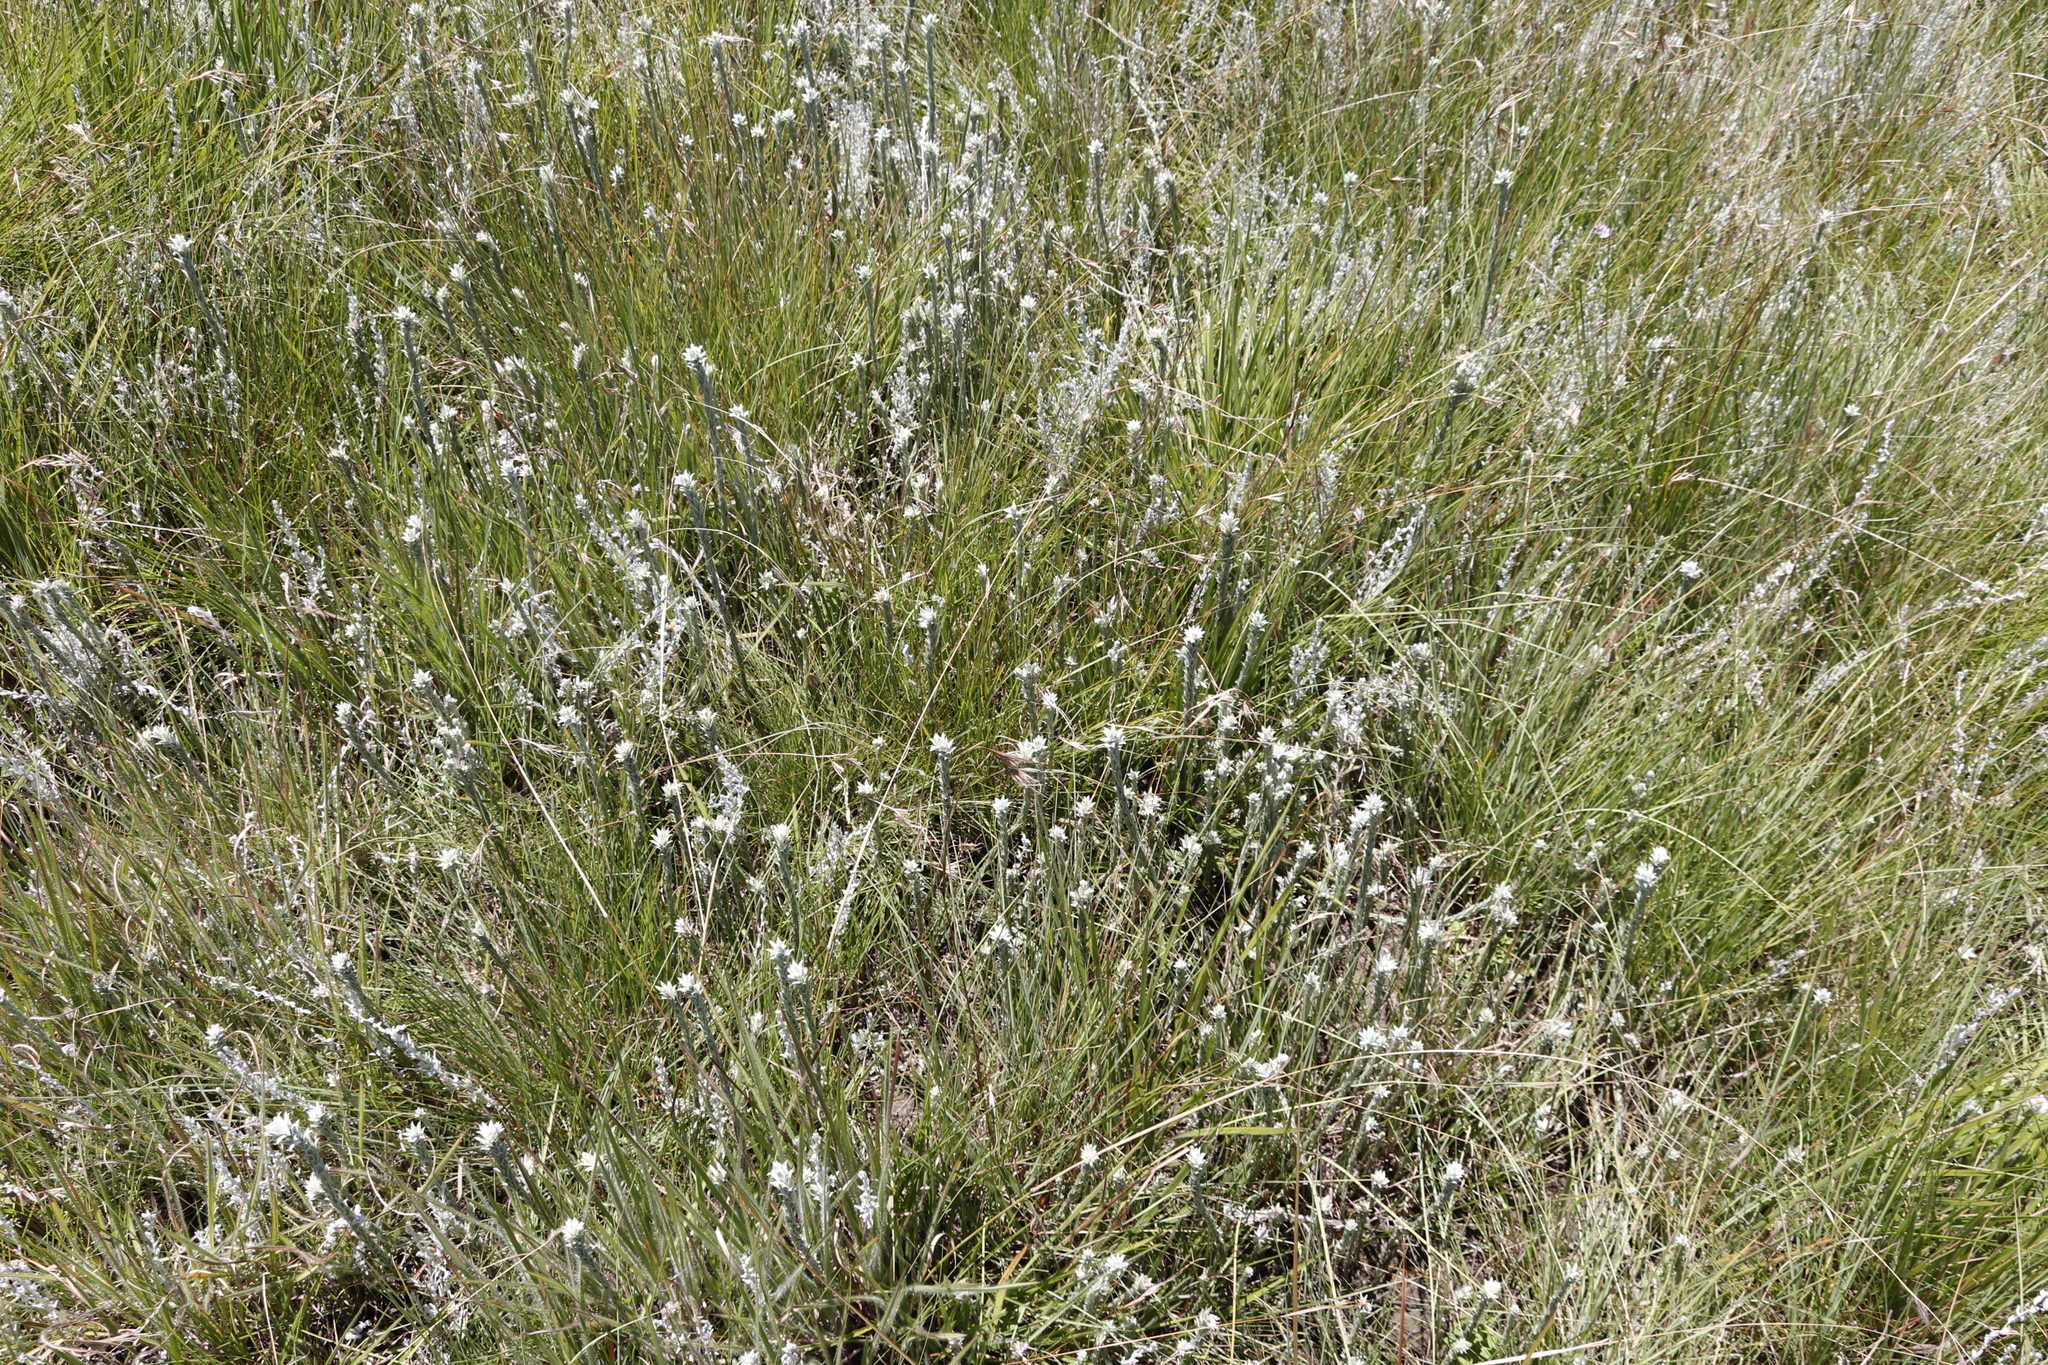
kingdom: Plantae
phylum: Tracheophyta
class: Magnoliopsida
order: Asterales
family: Asteraceae
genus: Helichrysum
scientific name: Helichrysum glomeratum
